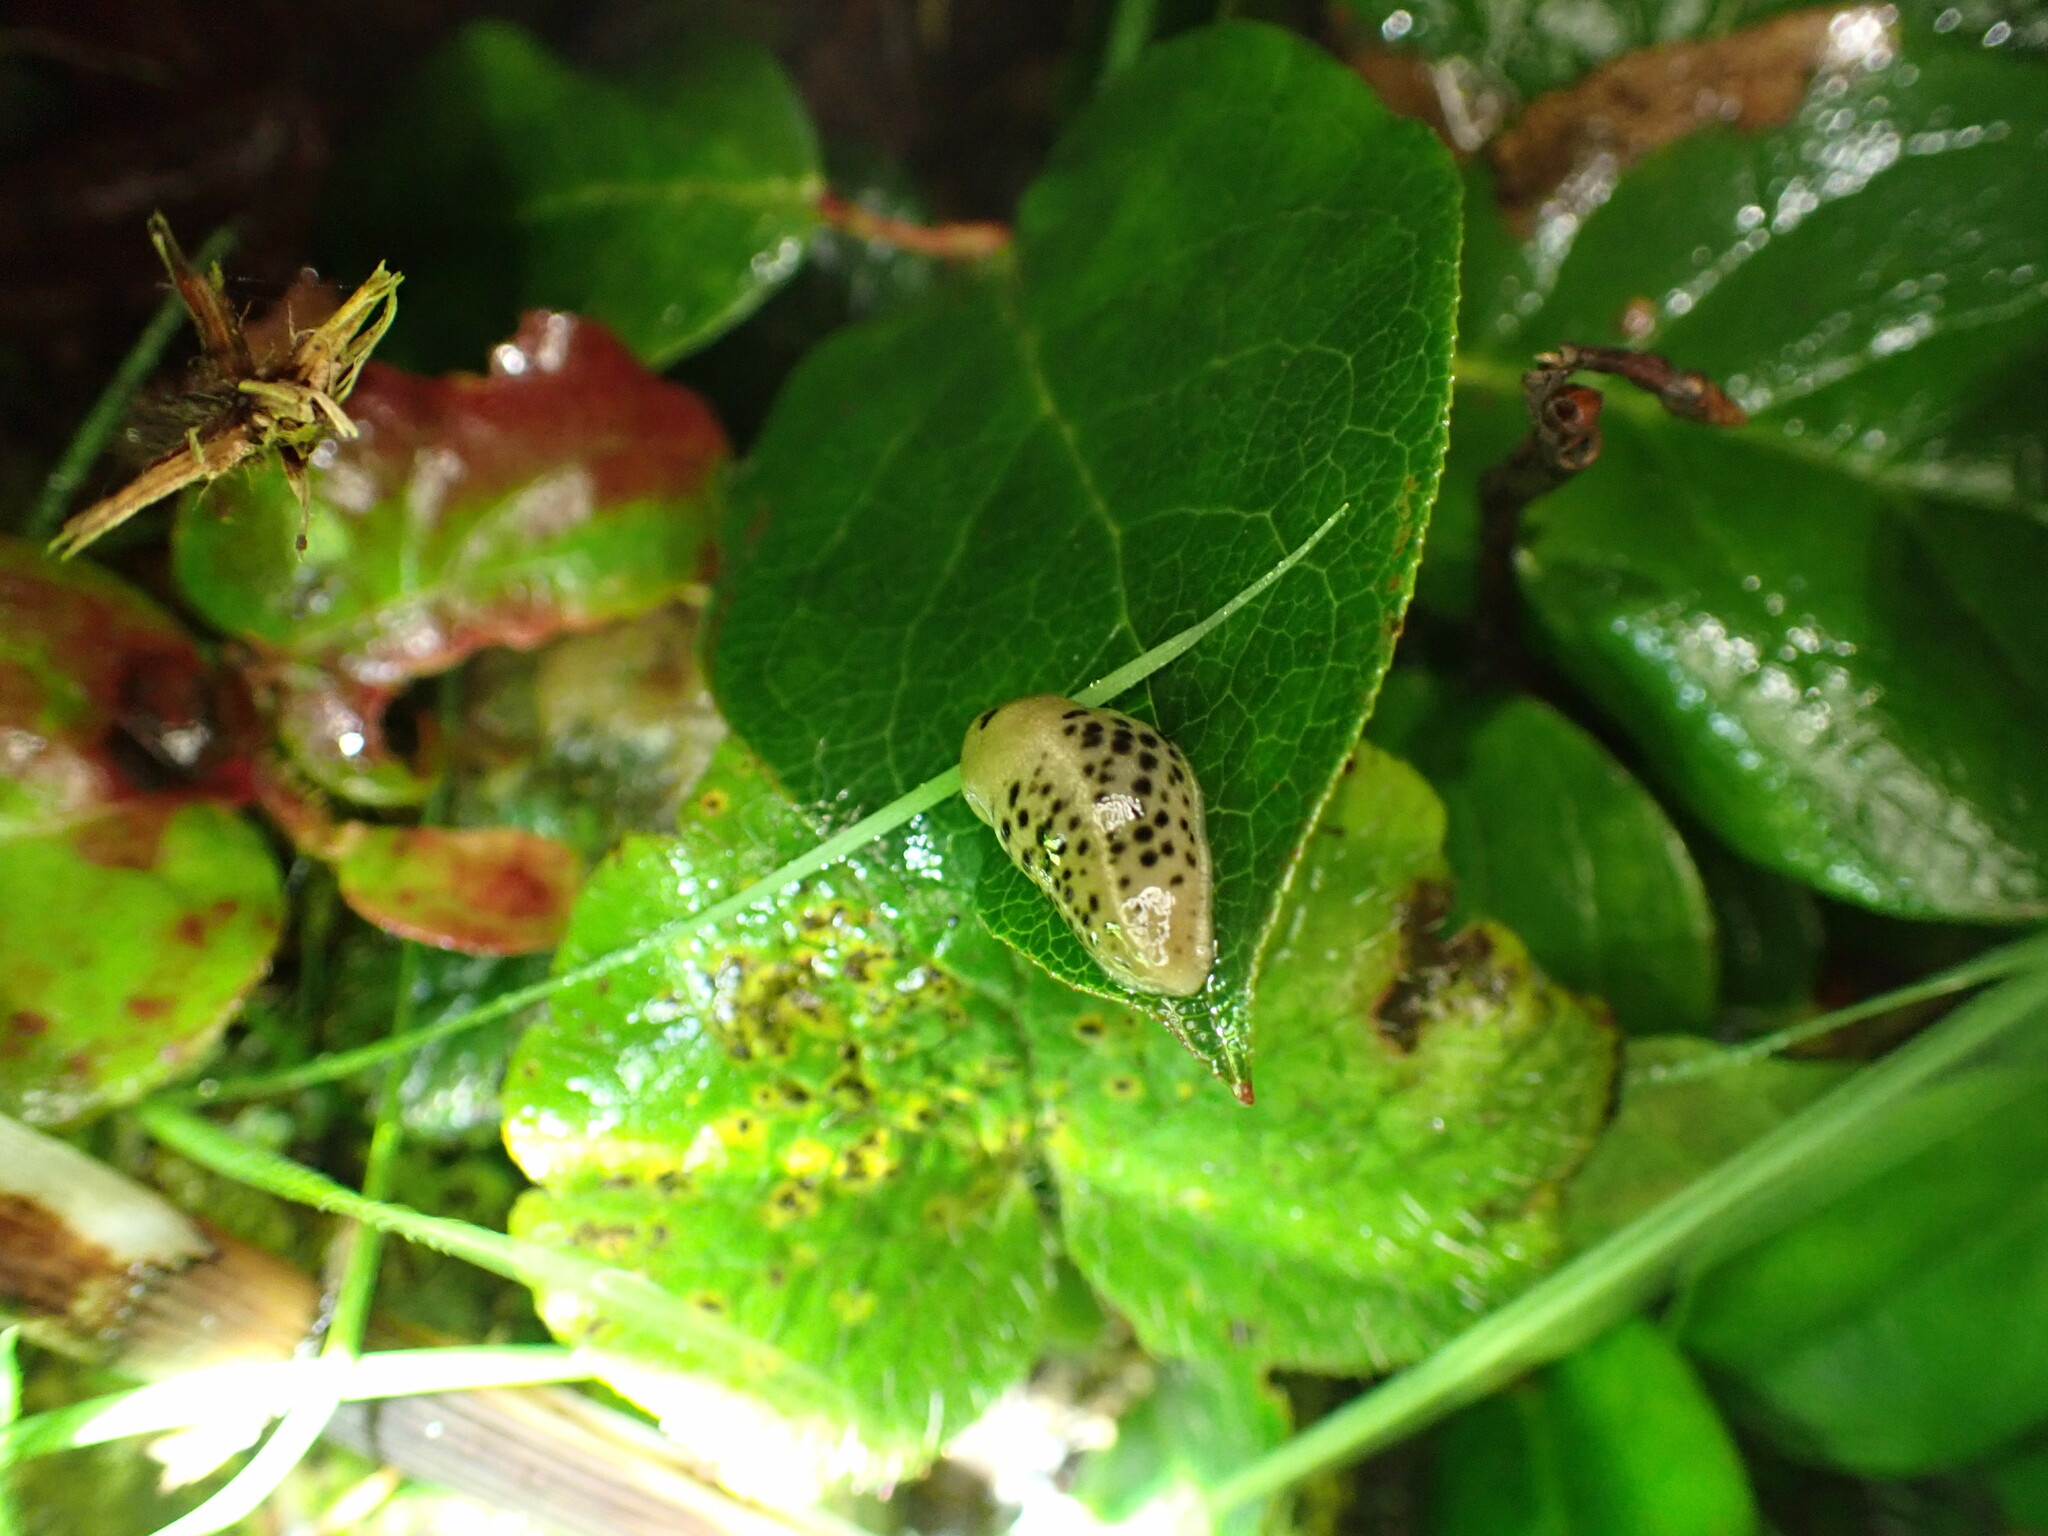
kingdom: Animalia
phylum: Mollusca
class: Gastropoda
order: Stylommatophora
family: Ariolimacidae
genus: Ariolimax
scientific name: Ariolimax columbianus
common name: Pacific banana slug
